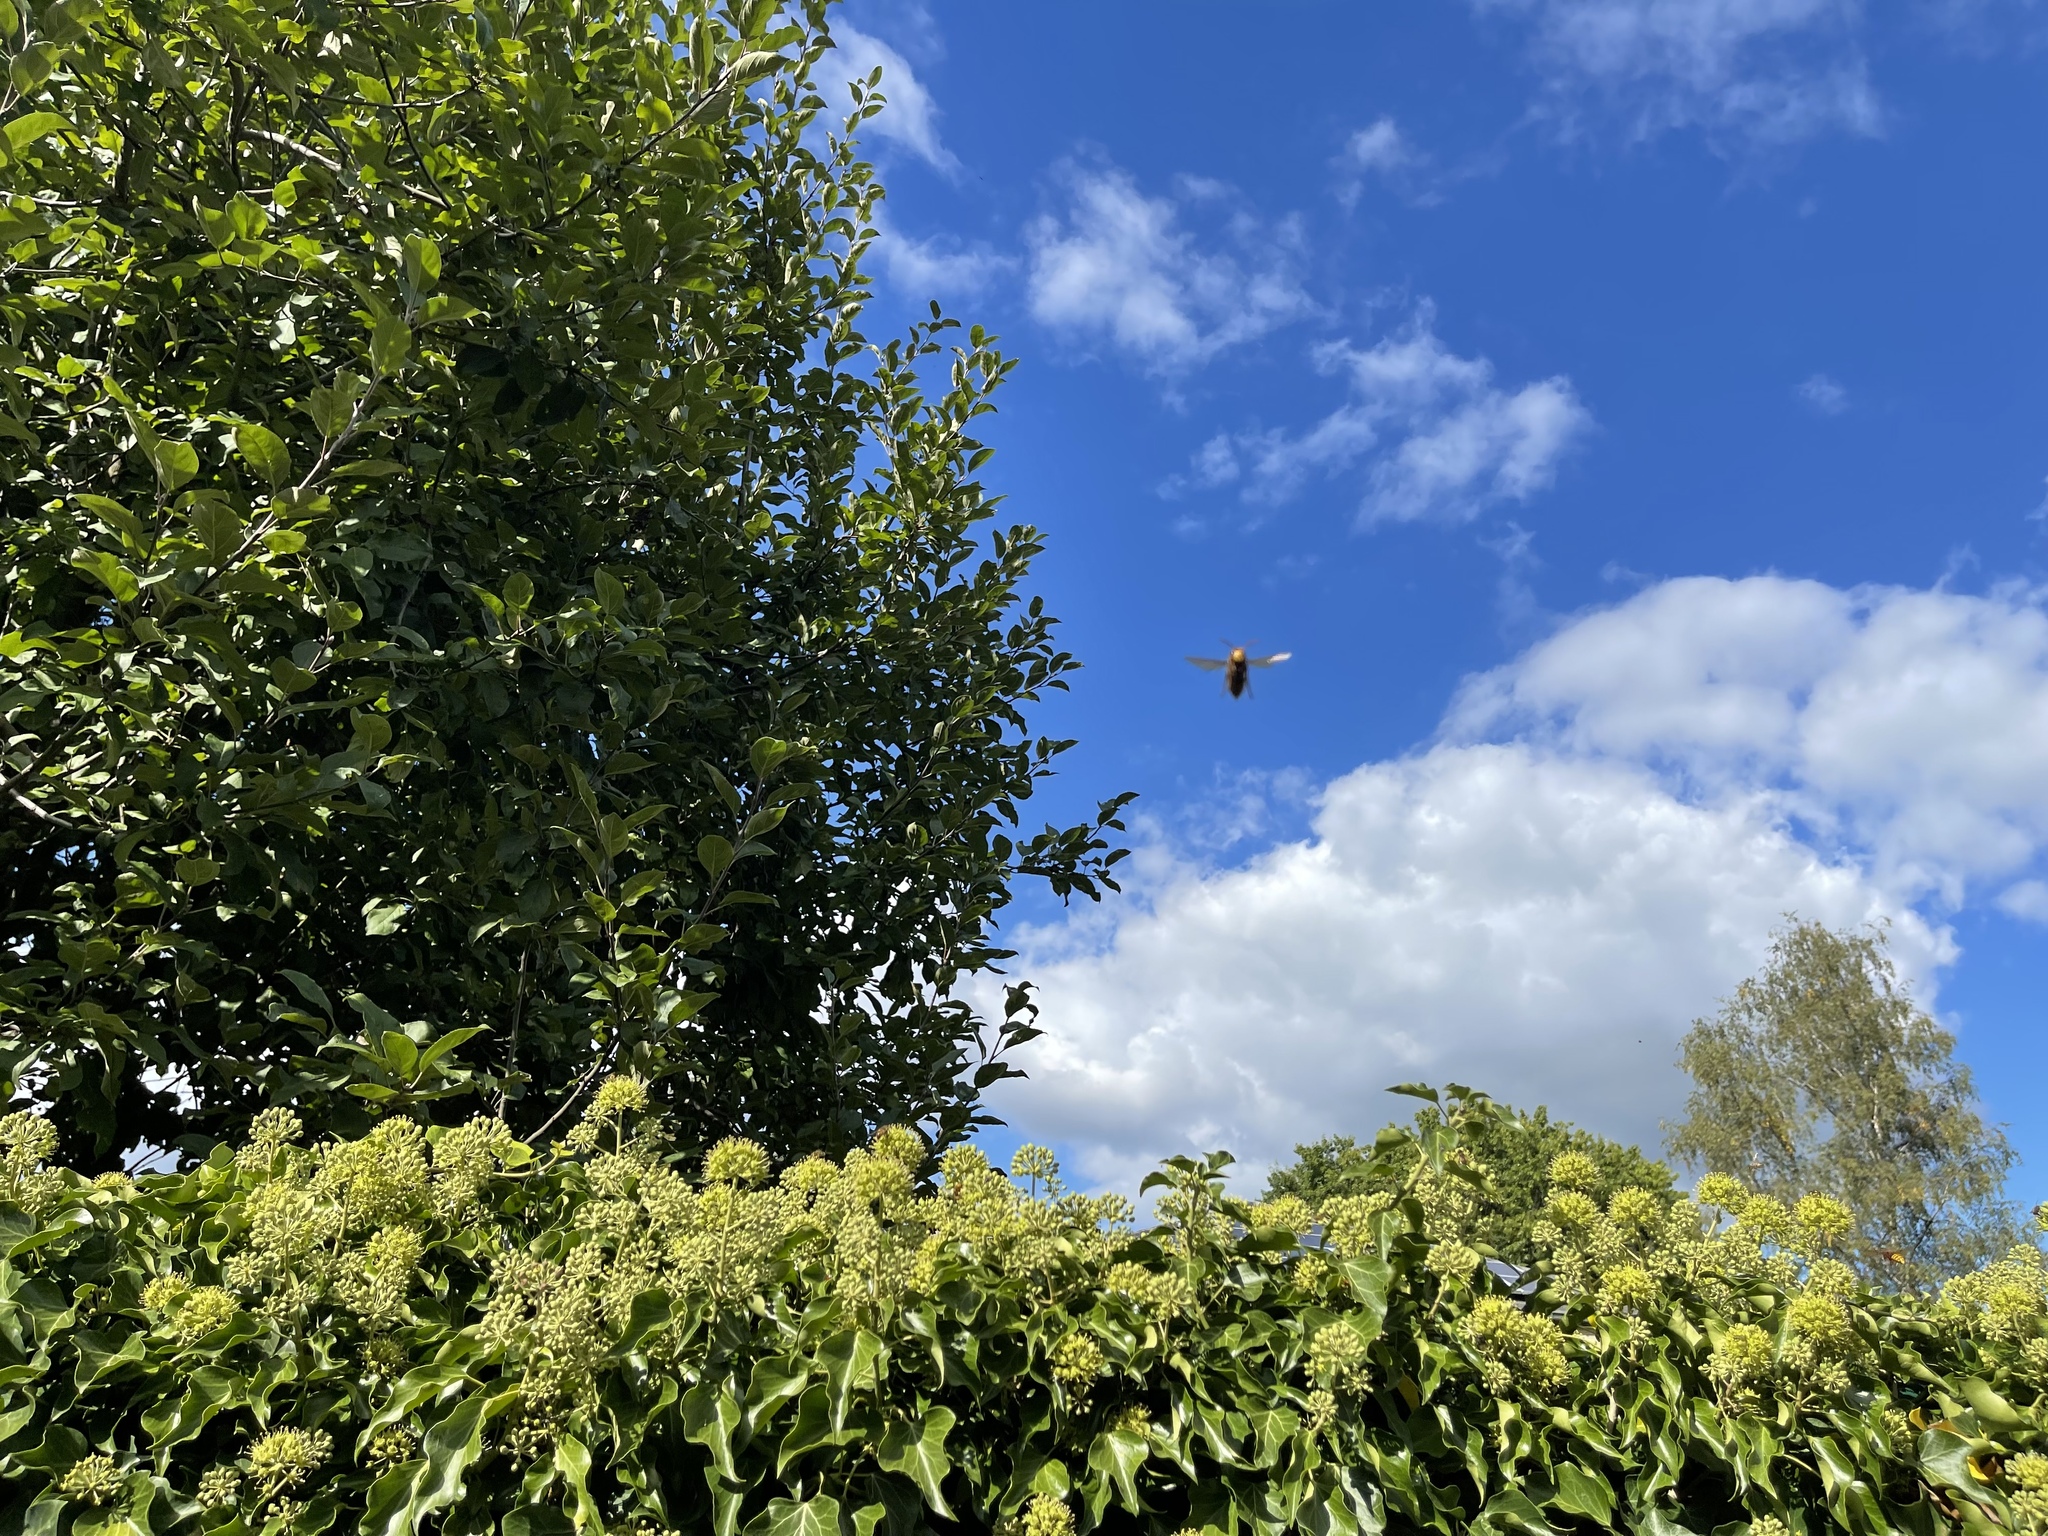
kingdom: Animalia
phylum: Arthropoda
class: Insecta
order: Hymenoptera
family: Vespidae
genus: Vespa
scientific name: Vespa crabro
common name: Hornet
